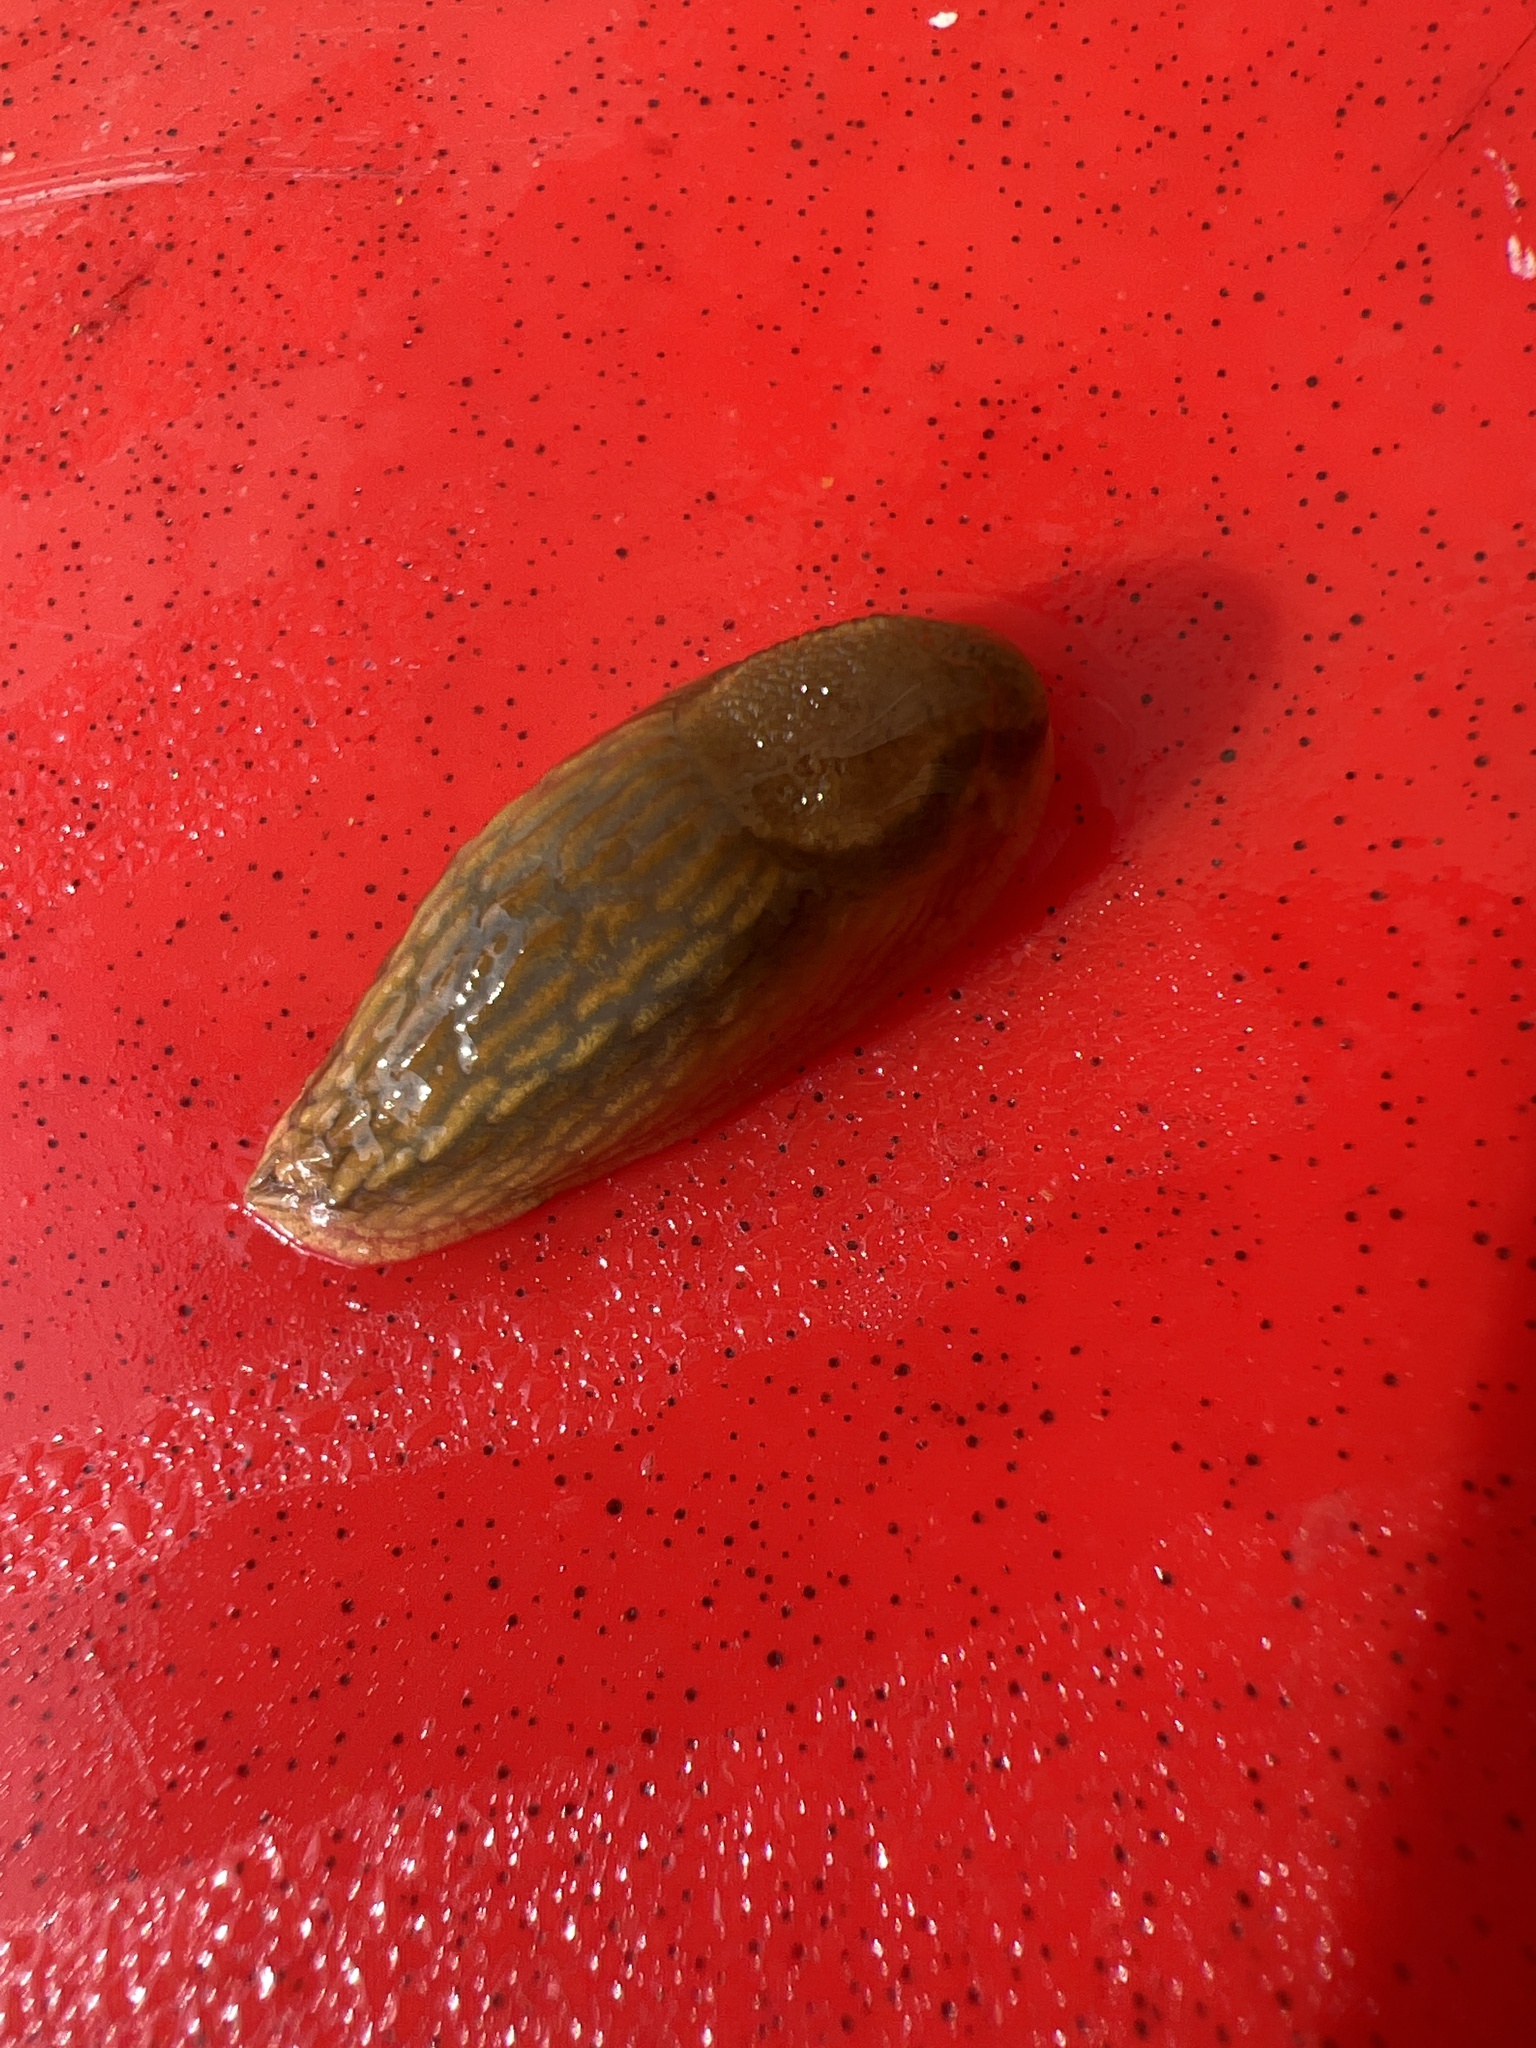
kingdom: Animalia
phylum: Mollusca
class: Gastropoda
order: Stylommatophora
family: Arionidae
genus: Arion
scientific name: Arion subfuscus
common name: Dusky arion
